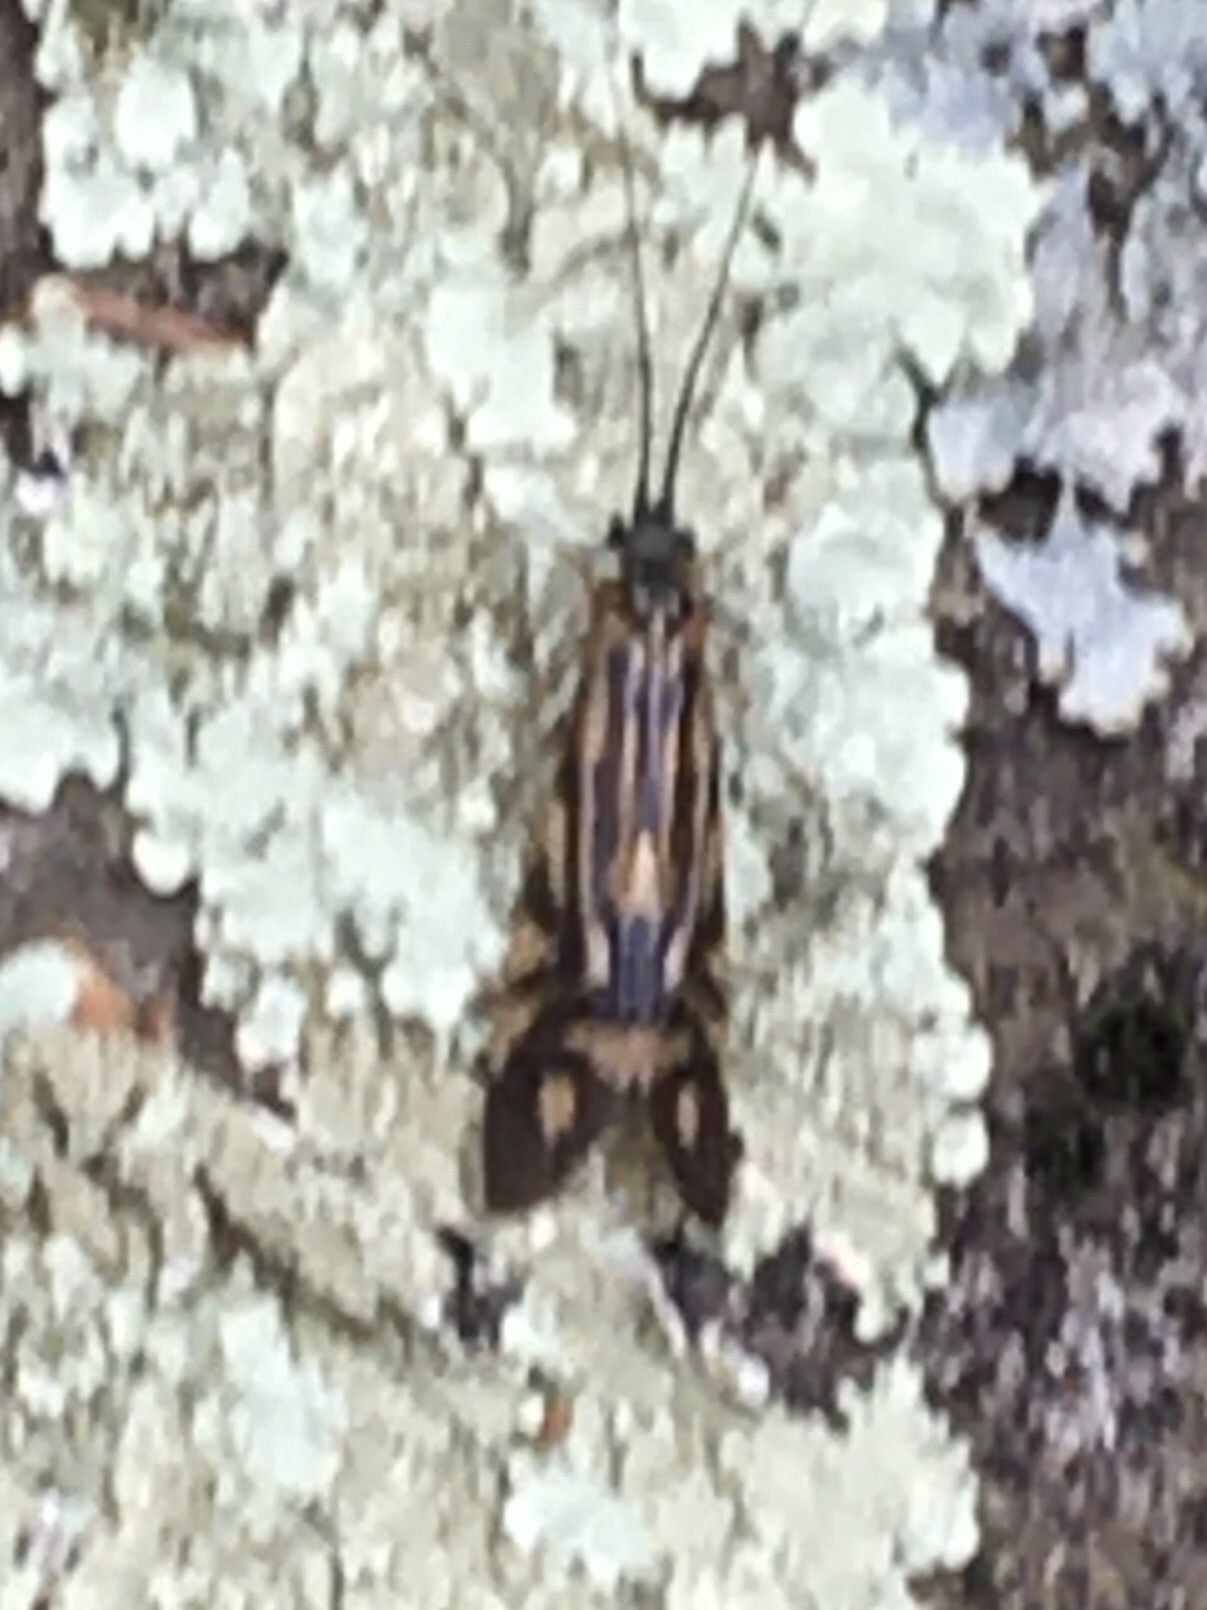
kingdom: Animalia
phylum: Arthropoda
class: Insecta
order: Trichoptera
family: Hydropsychidae
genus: Macrostemum
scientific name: Macrostemum zebratum
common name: Zebra caddisfly
